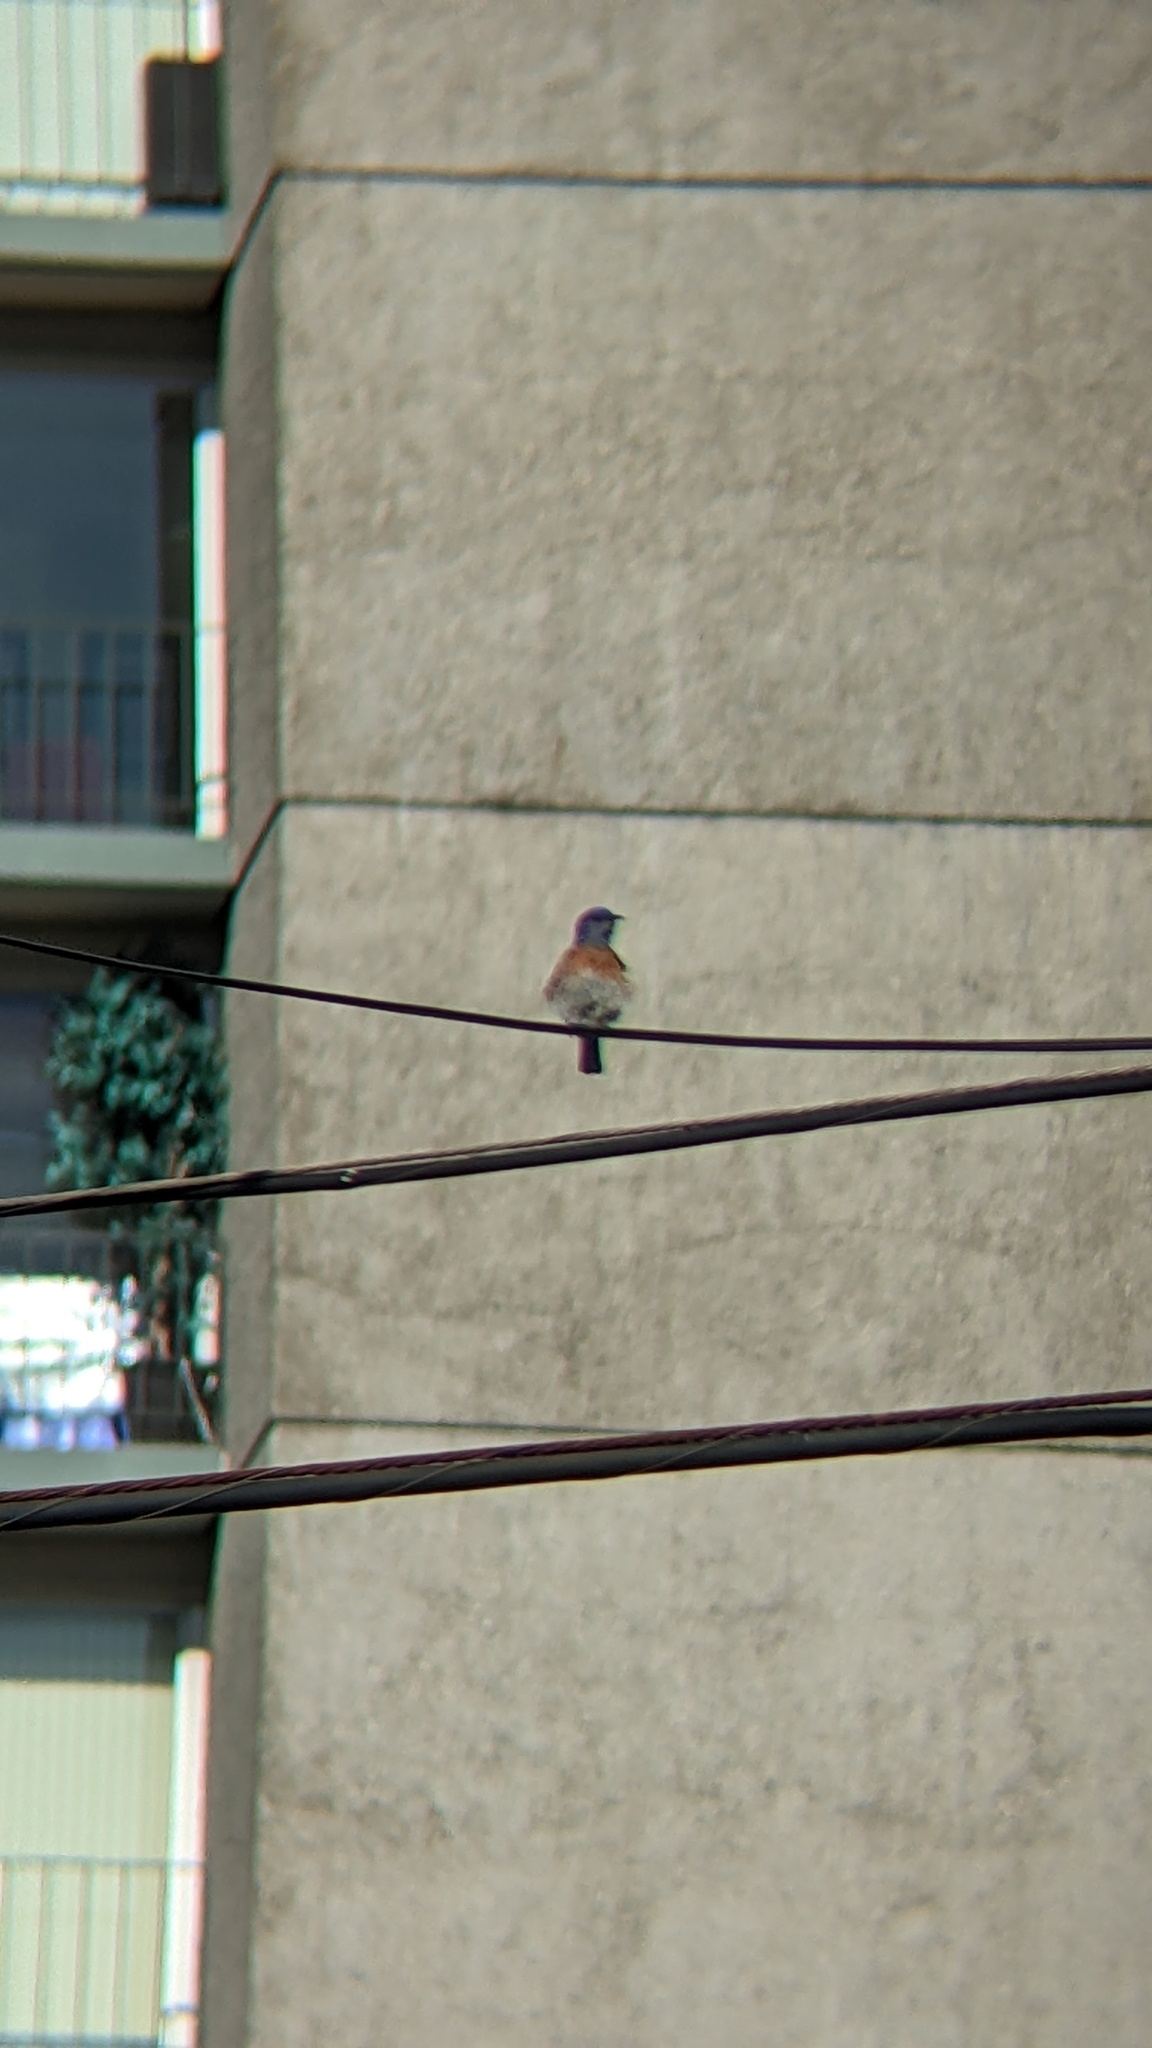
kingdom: Animalia
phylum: Chordata
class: Aves
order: Passeriformes
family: Turdidae
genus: Sialia
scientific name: Sialia mexicana
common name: Western bluebird
